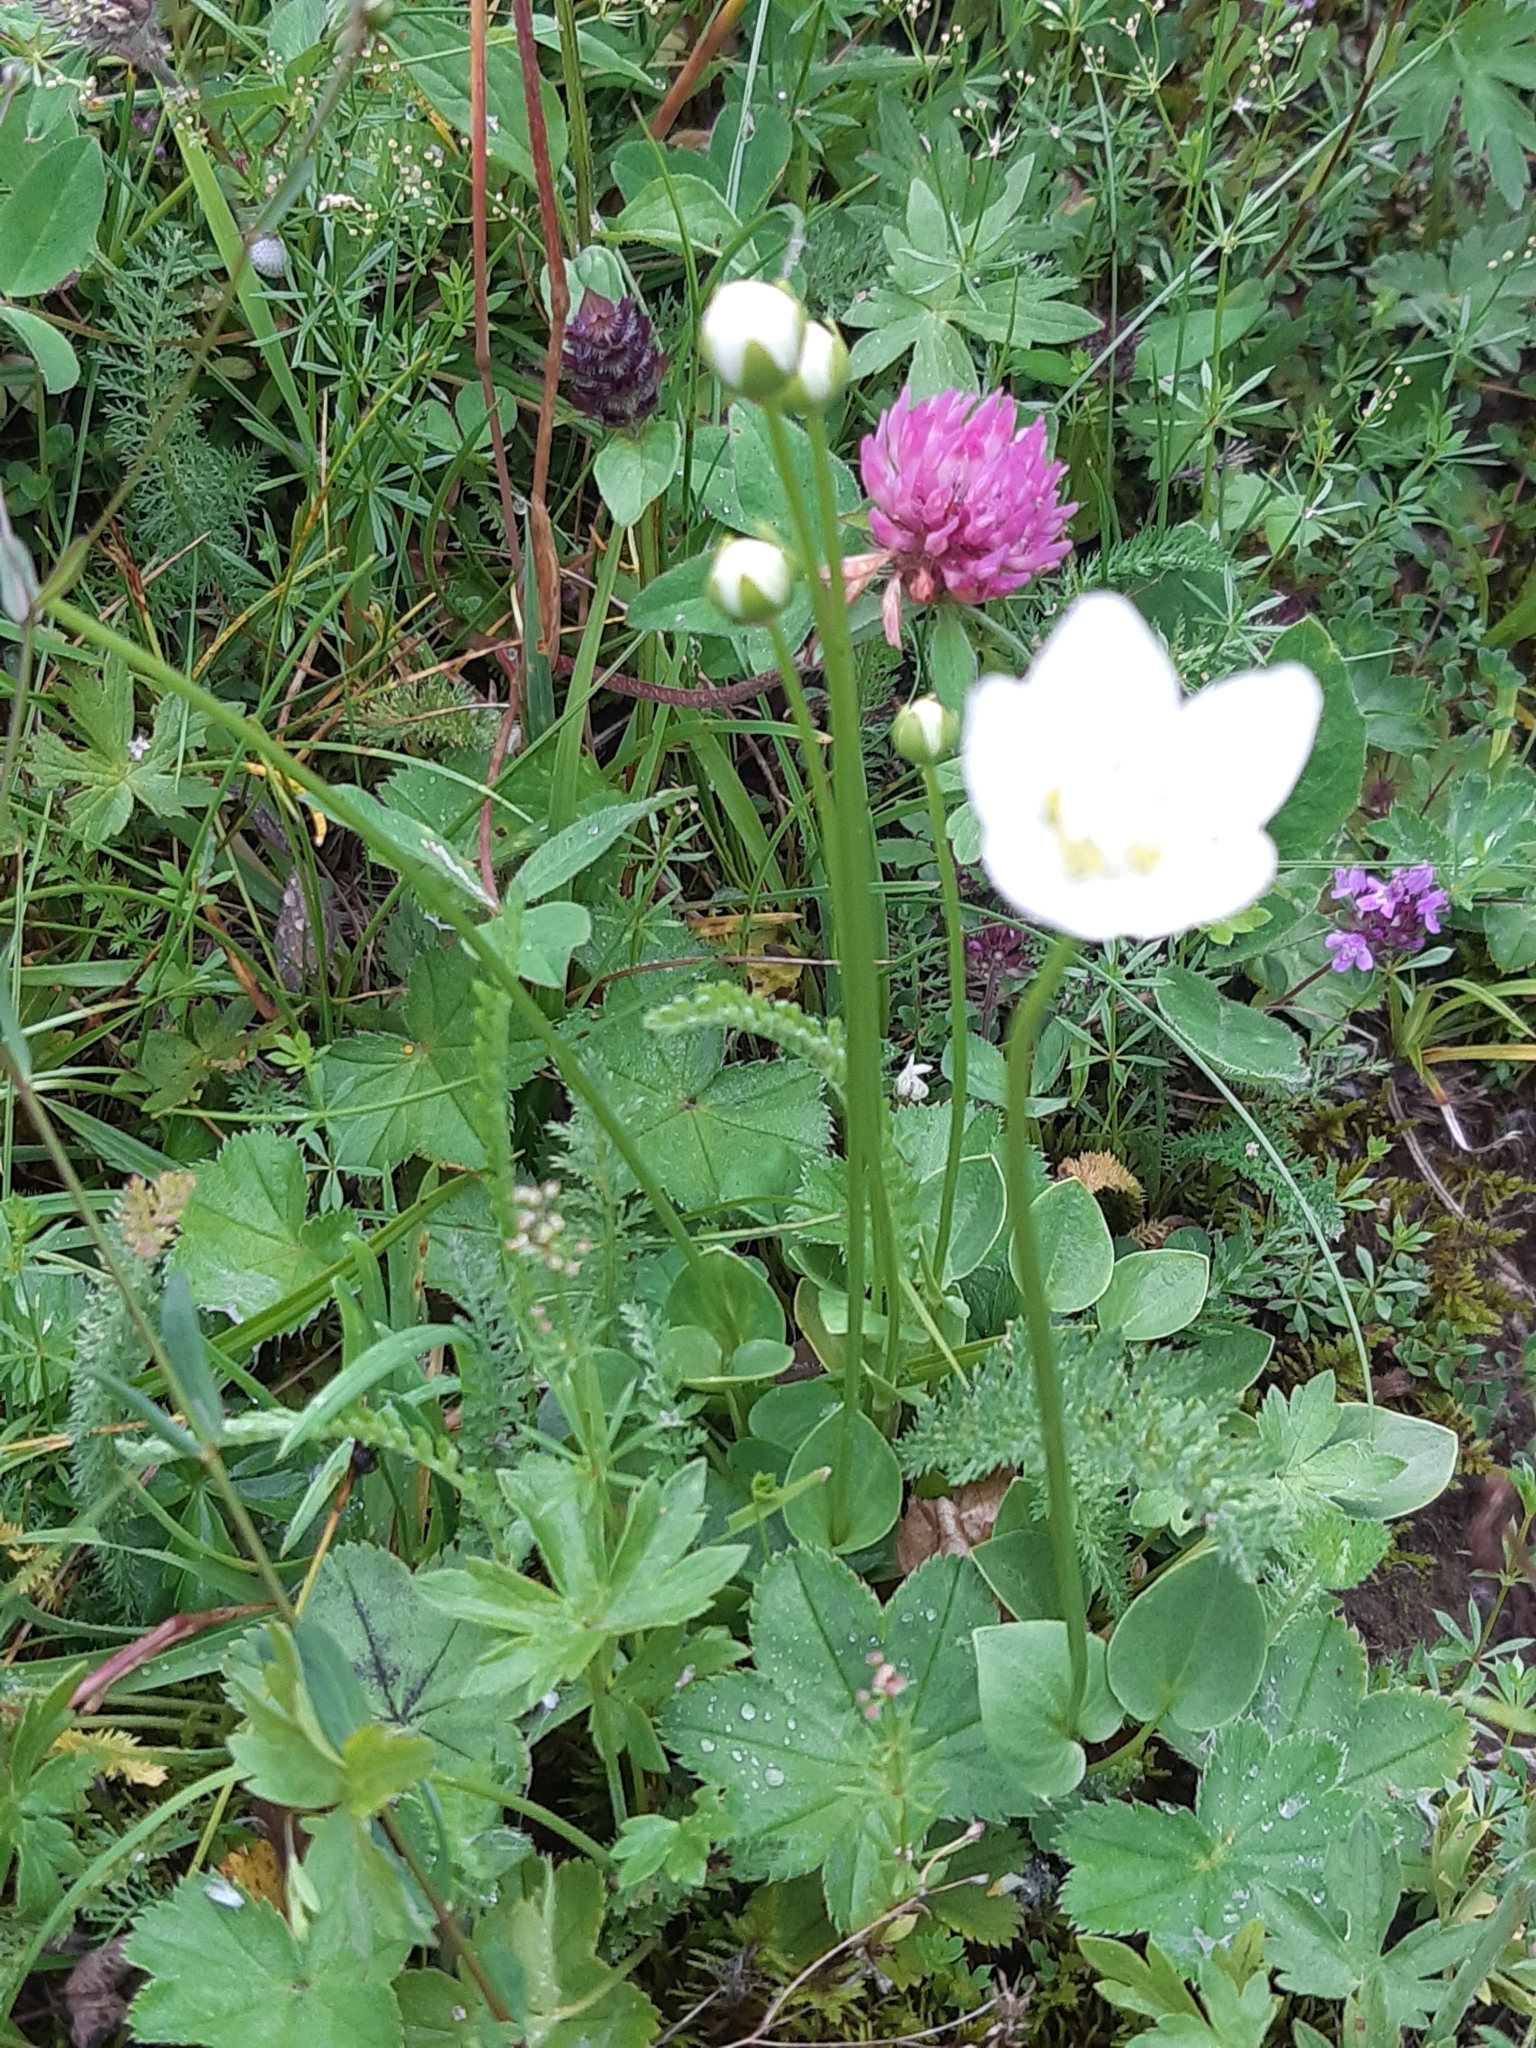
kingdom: Plantae
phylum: Tracheophyta
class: Magnoliopsida
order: Celastrales
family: Parnassiaceae
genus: Parnassia
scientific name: Parnassia palustris
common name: Grass-of-parnassus
